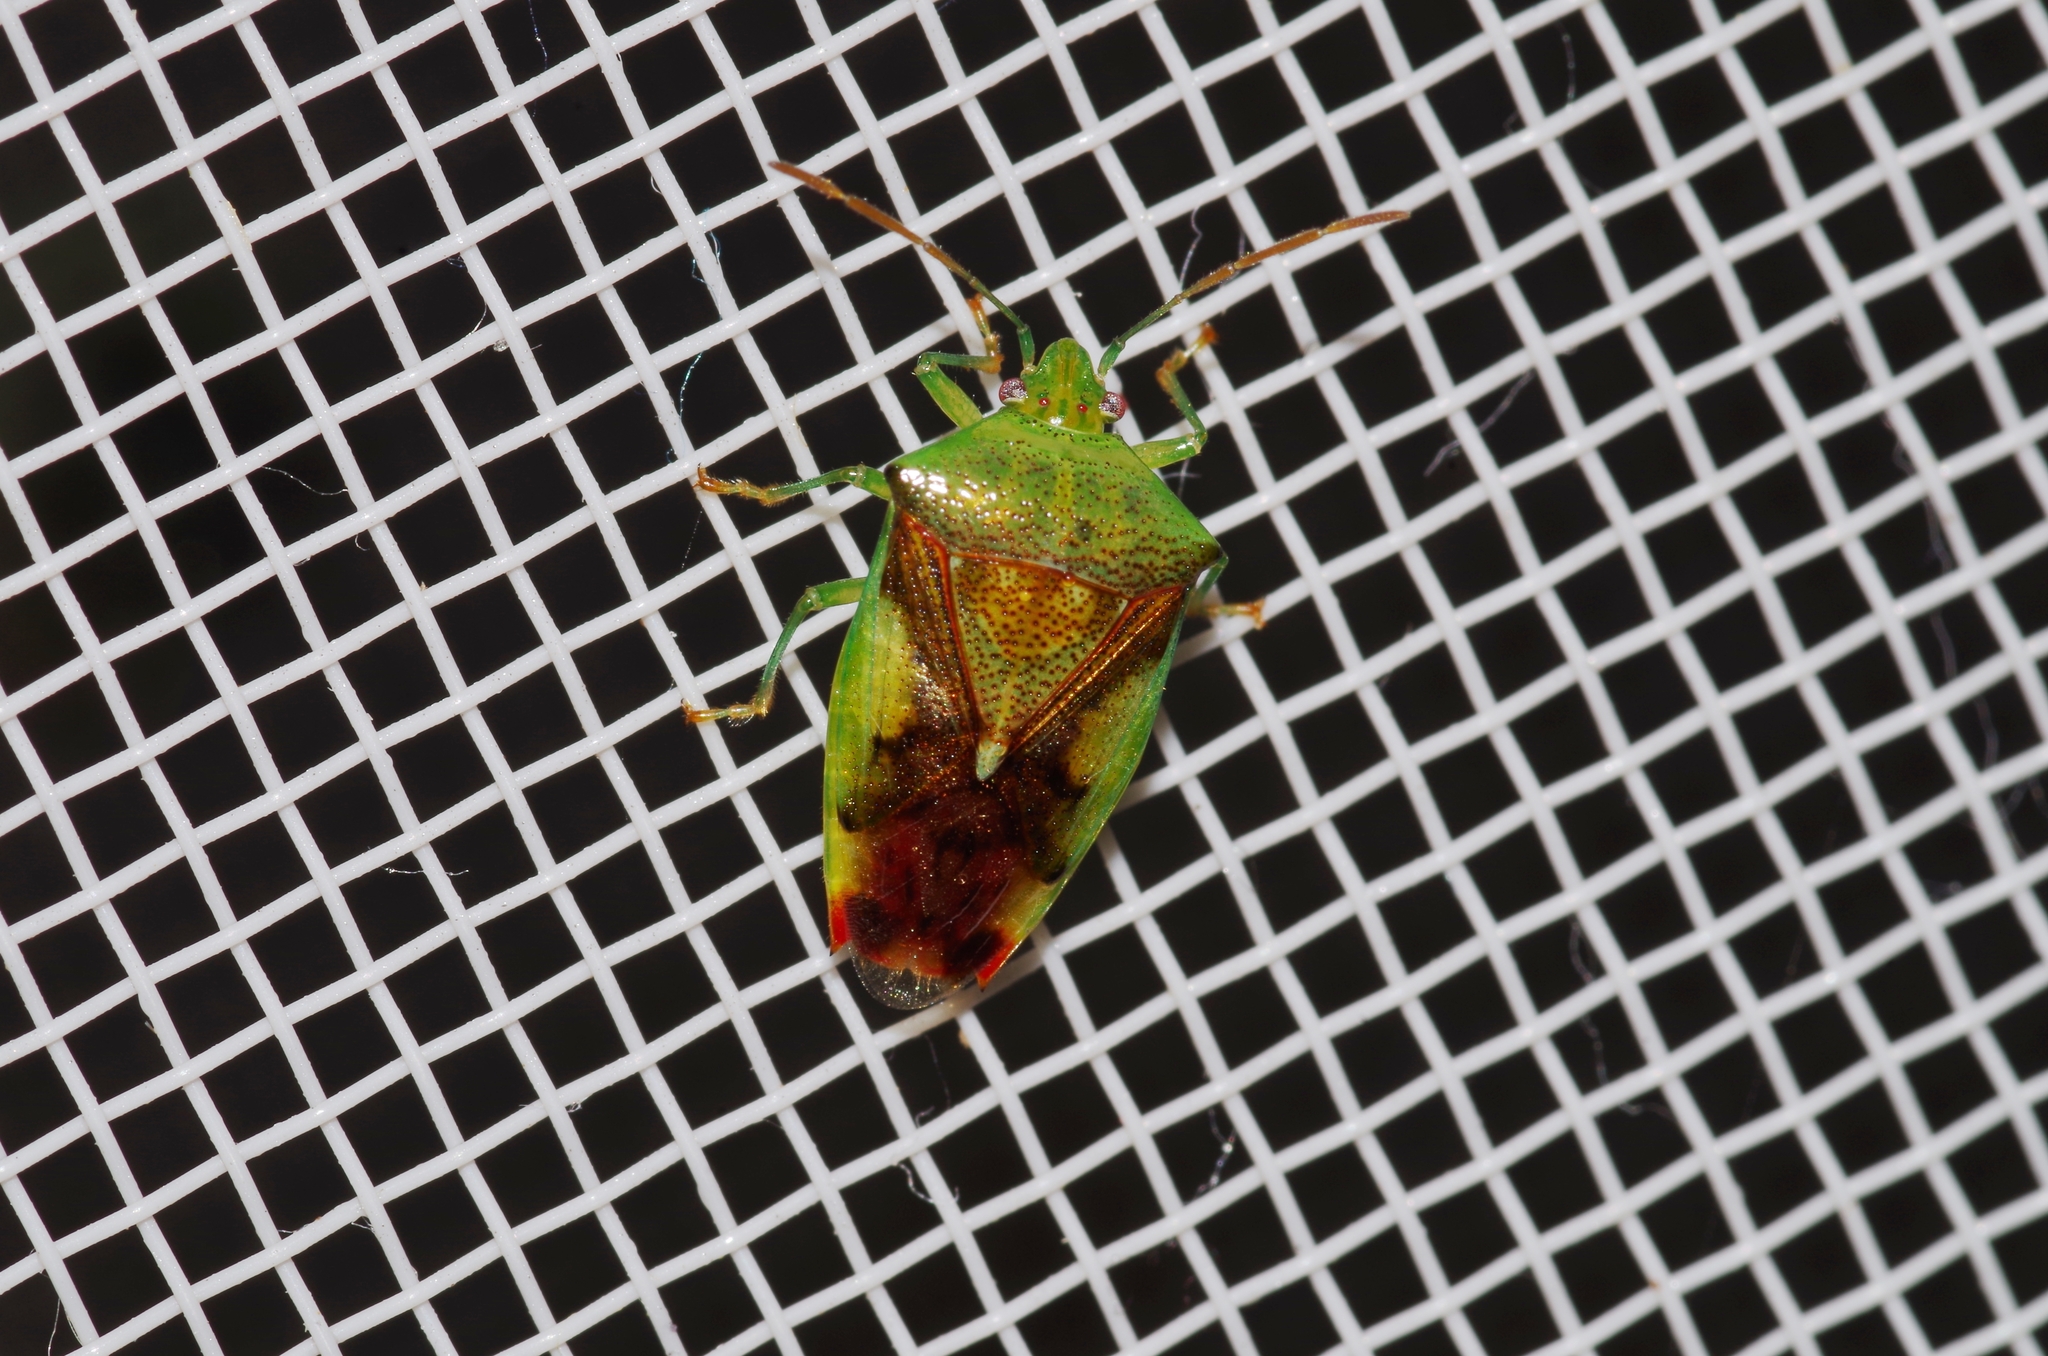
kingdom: Animalia
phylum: Arthropoda
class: Insecta
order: Hemiptera
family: Acanthosomatidae
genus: Elasmostethus
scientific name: Elasmostethus nubilus
